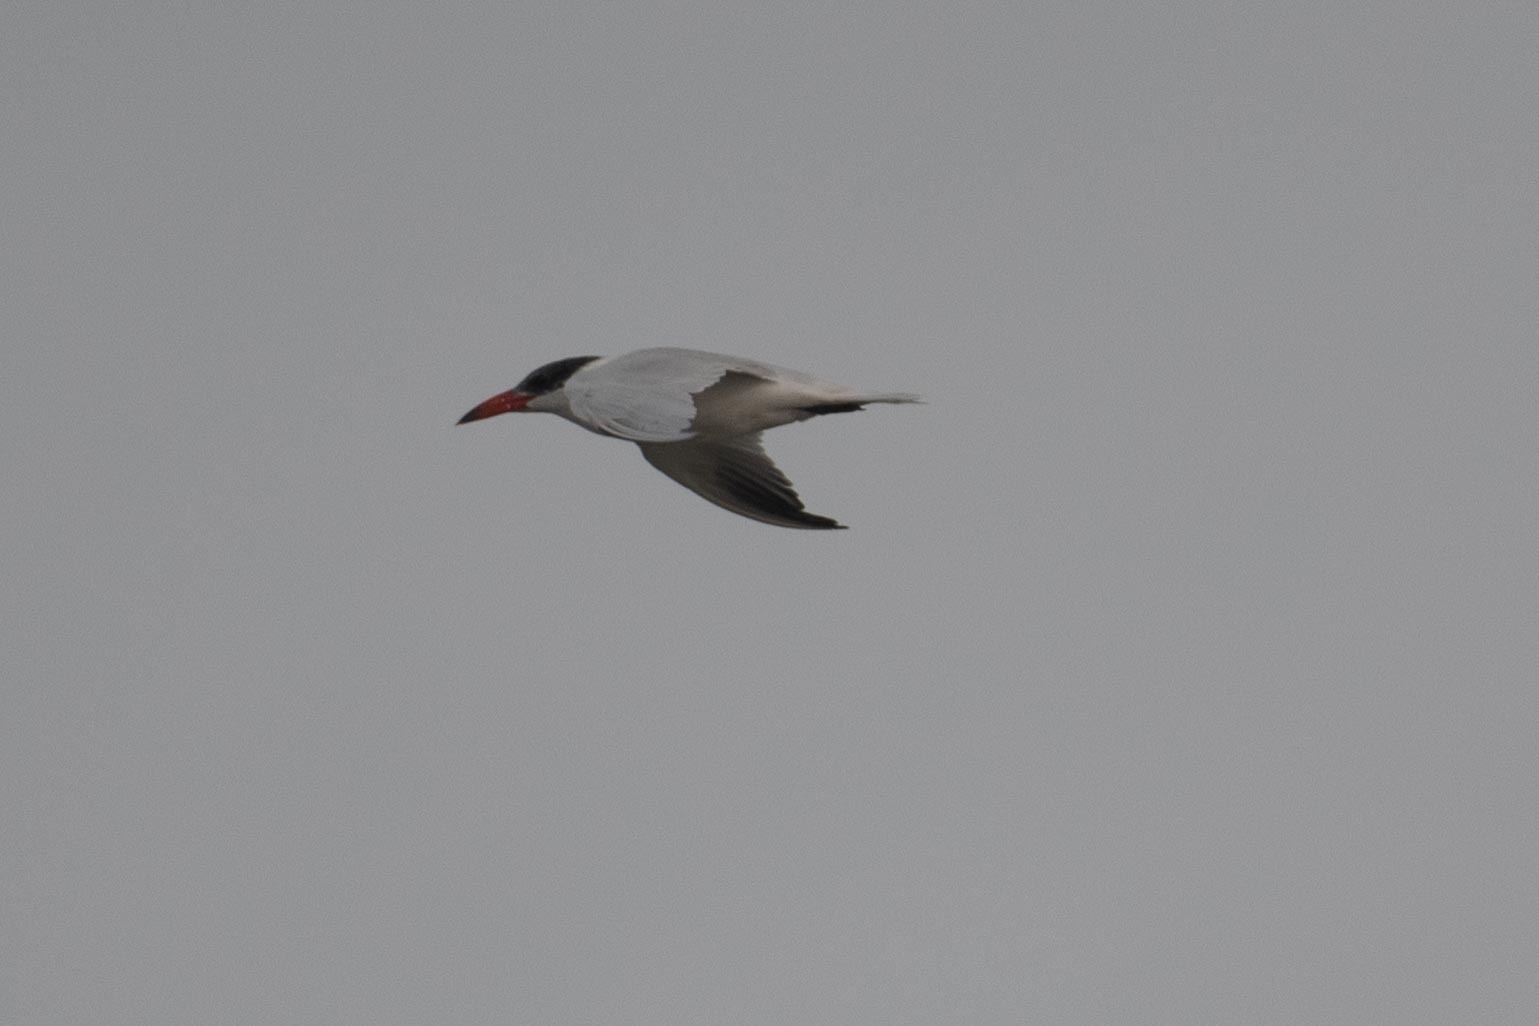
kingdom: Animalia
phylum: Chordata
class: Aves
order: Charadriiformes
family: Laridae
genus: Hydroprogne
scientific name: Hydroprogne caspia
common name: Caspian tern
